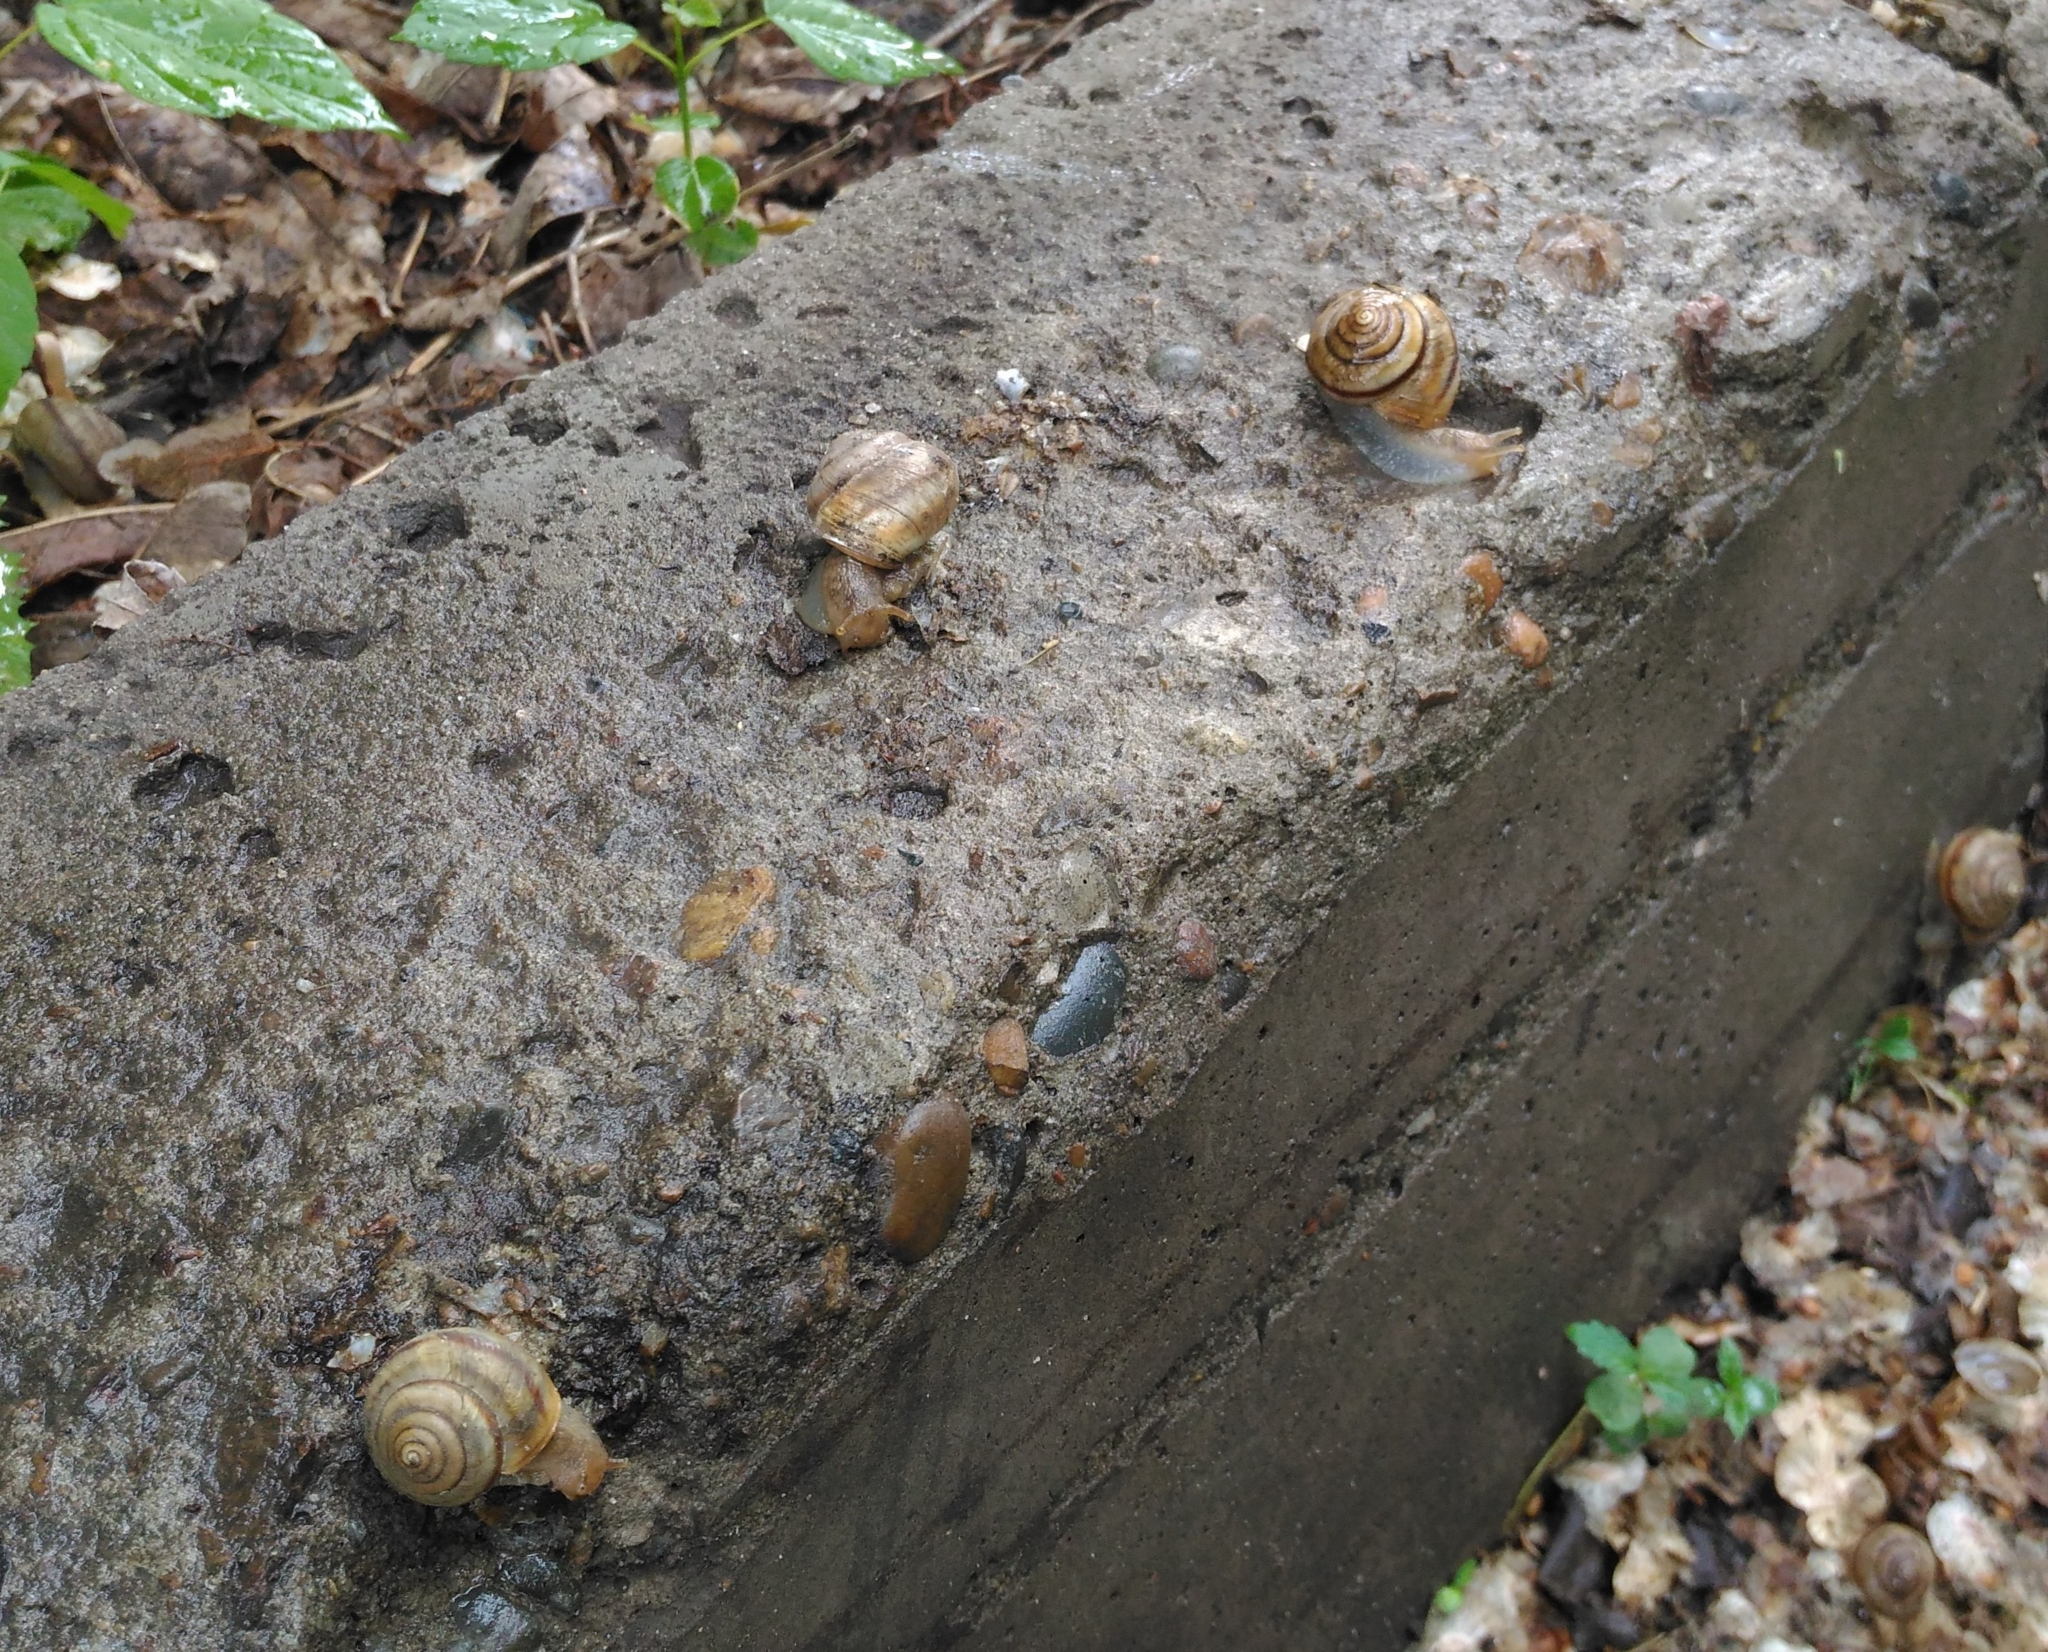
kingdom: Animalia
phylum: Mollusca
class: Gastropoda
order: Stylommatophora
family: Camaenidae
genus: Fruticicola
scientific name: Fruticicola fruticum
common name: Bush snail
